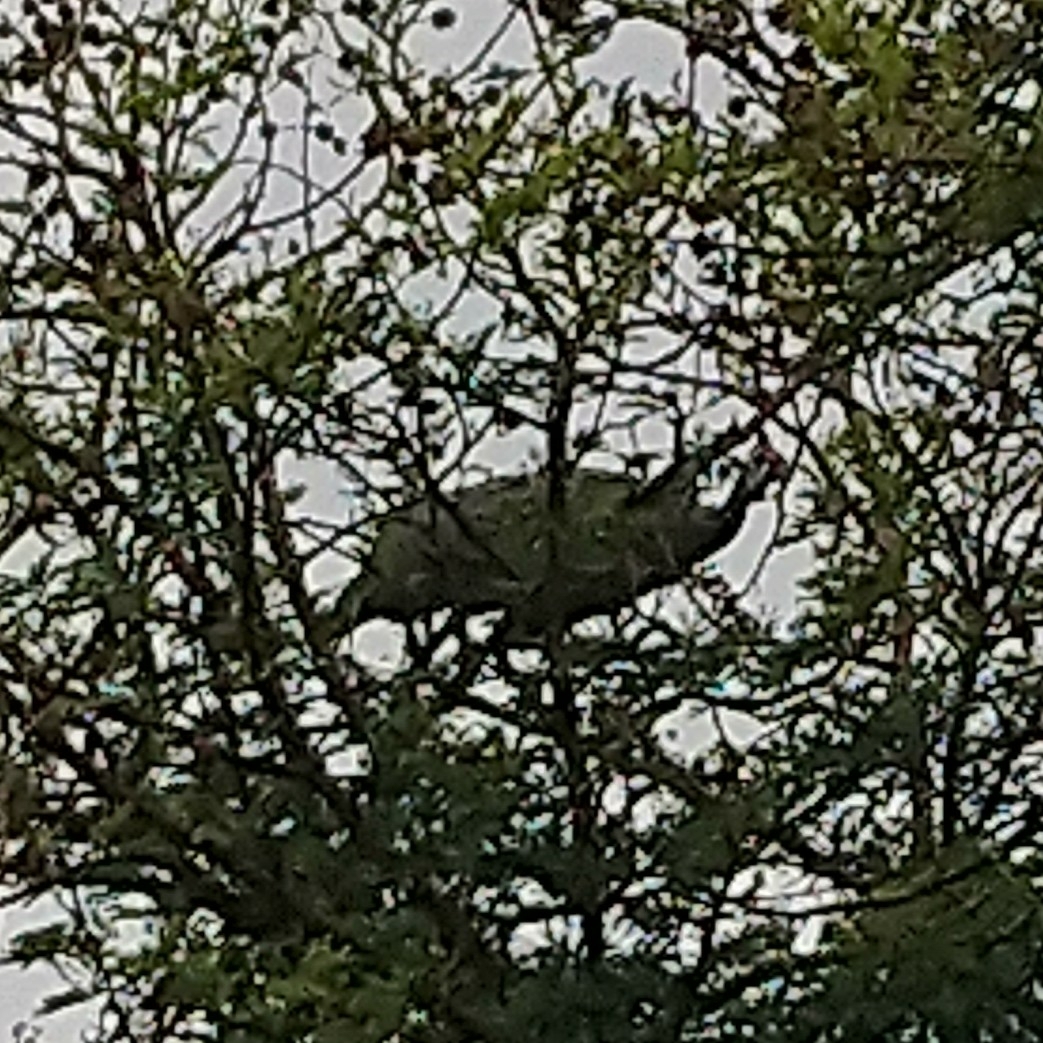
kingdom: Animalia
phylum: Chordata
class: Aves
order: Galliformes
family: Numididae
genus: Numida
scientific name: Numida meleagris
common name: Helmeted guineafowl
